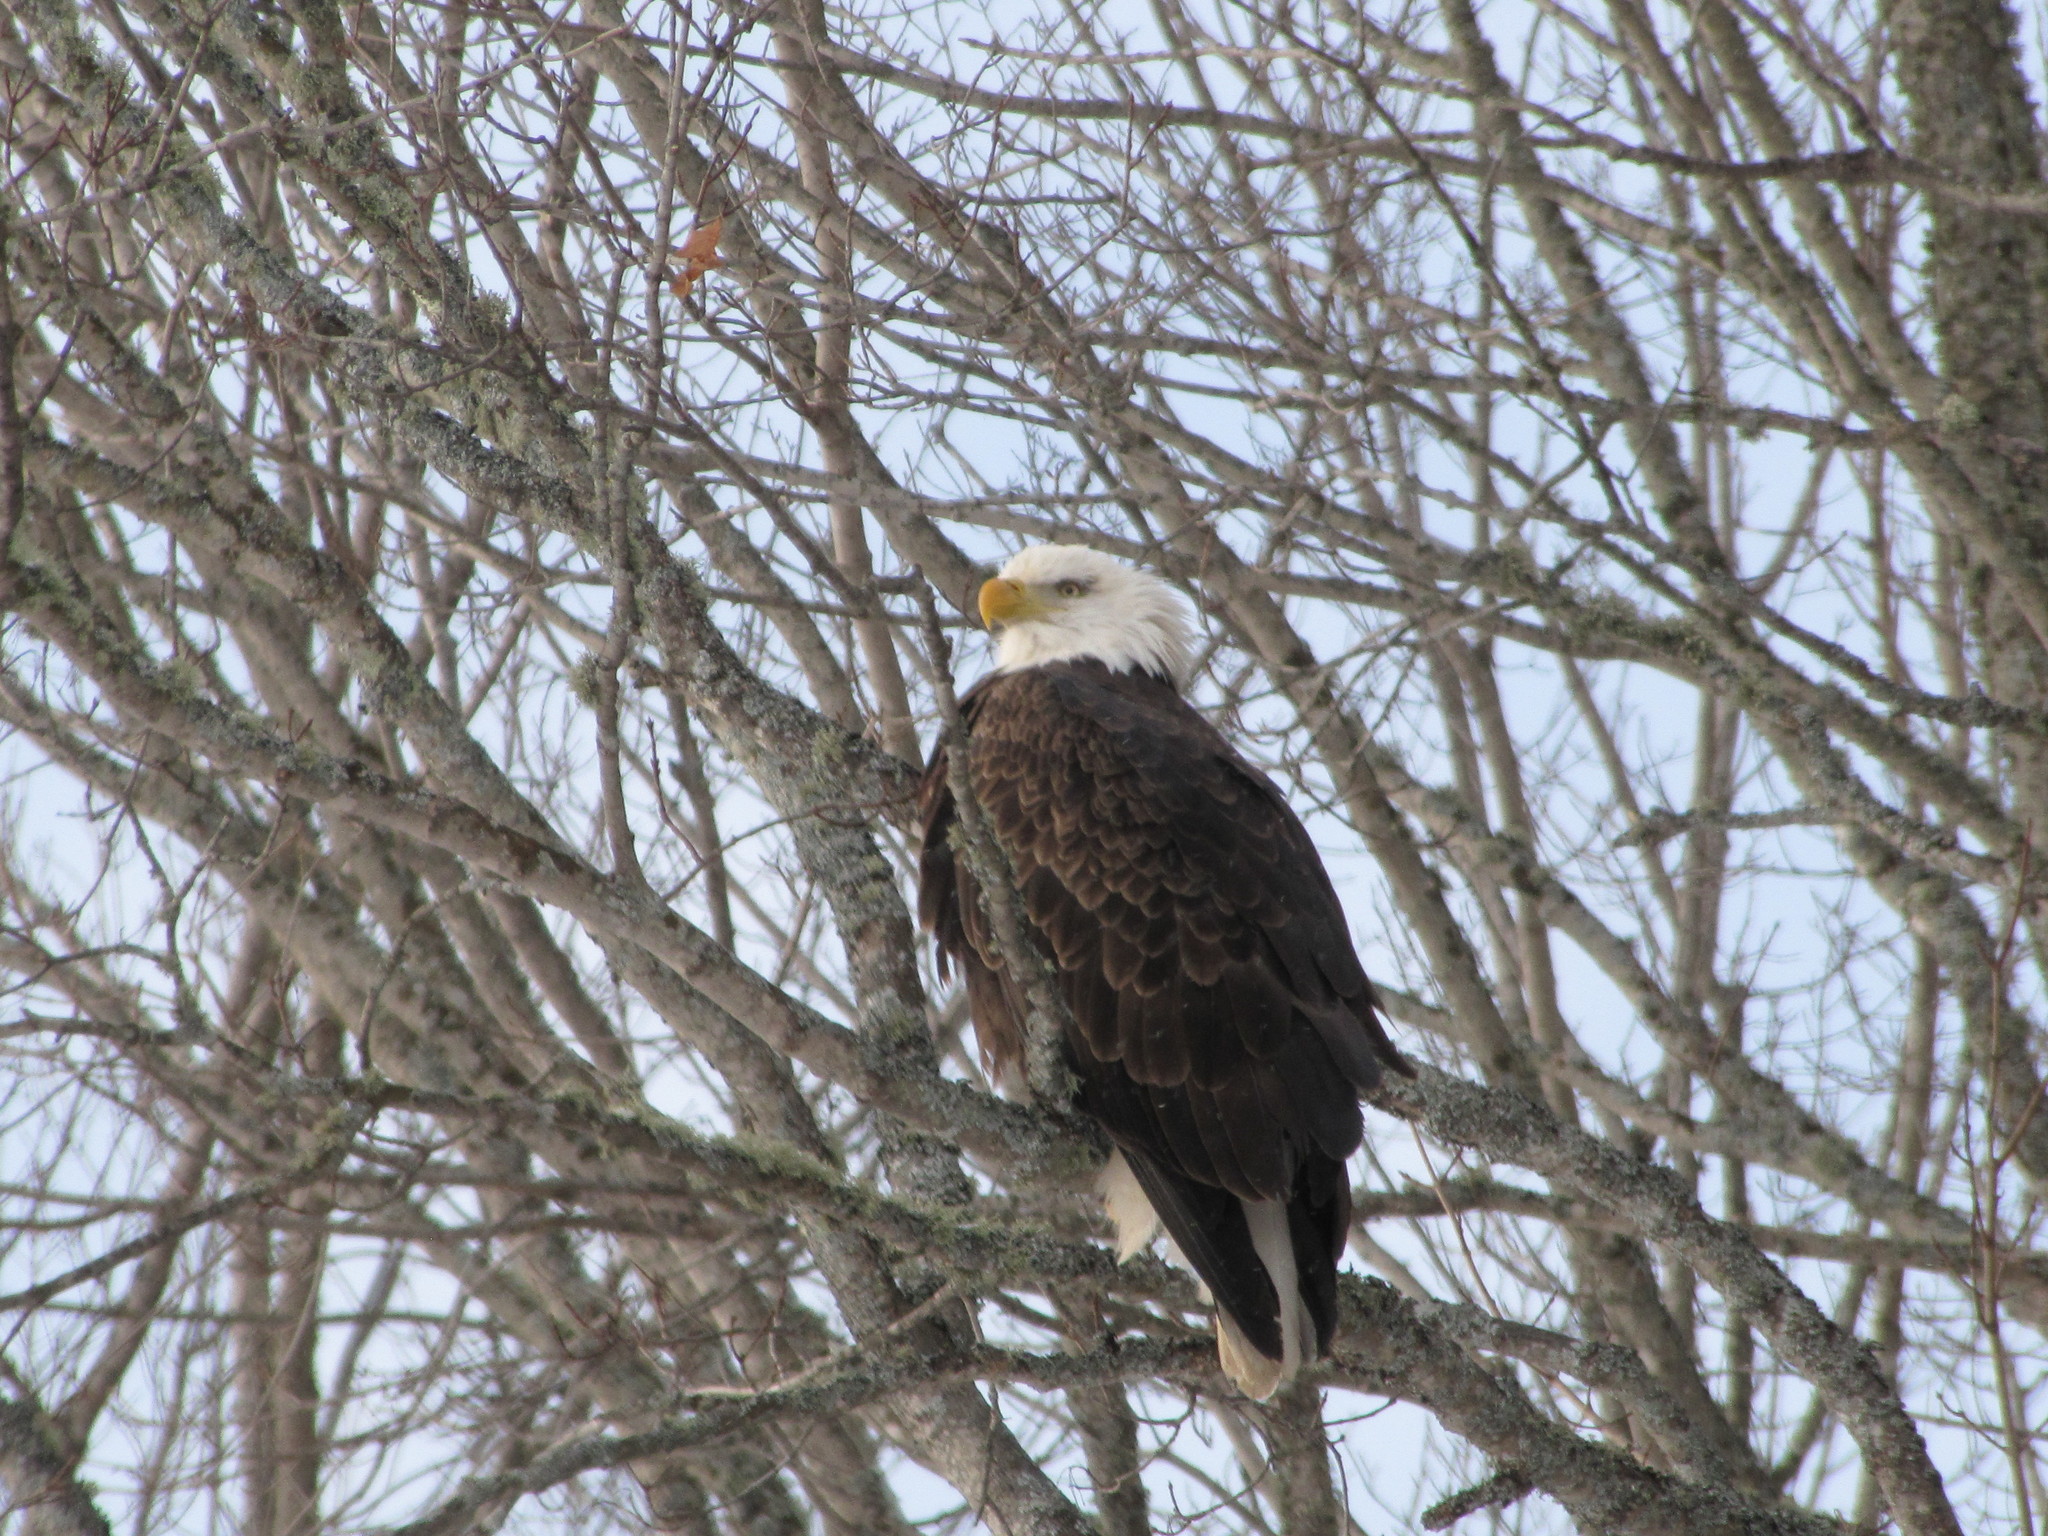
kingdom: Animalia
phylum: Chordata
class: Aves
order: Accipitriformes
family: Accipitridae
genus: Haliaeetus
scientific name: Haliaeetus leucocephalus
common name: Bald eagle
